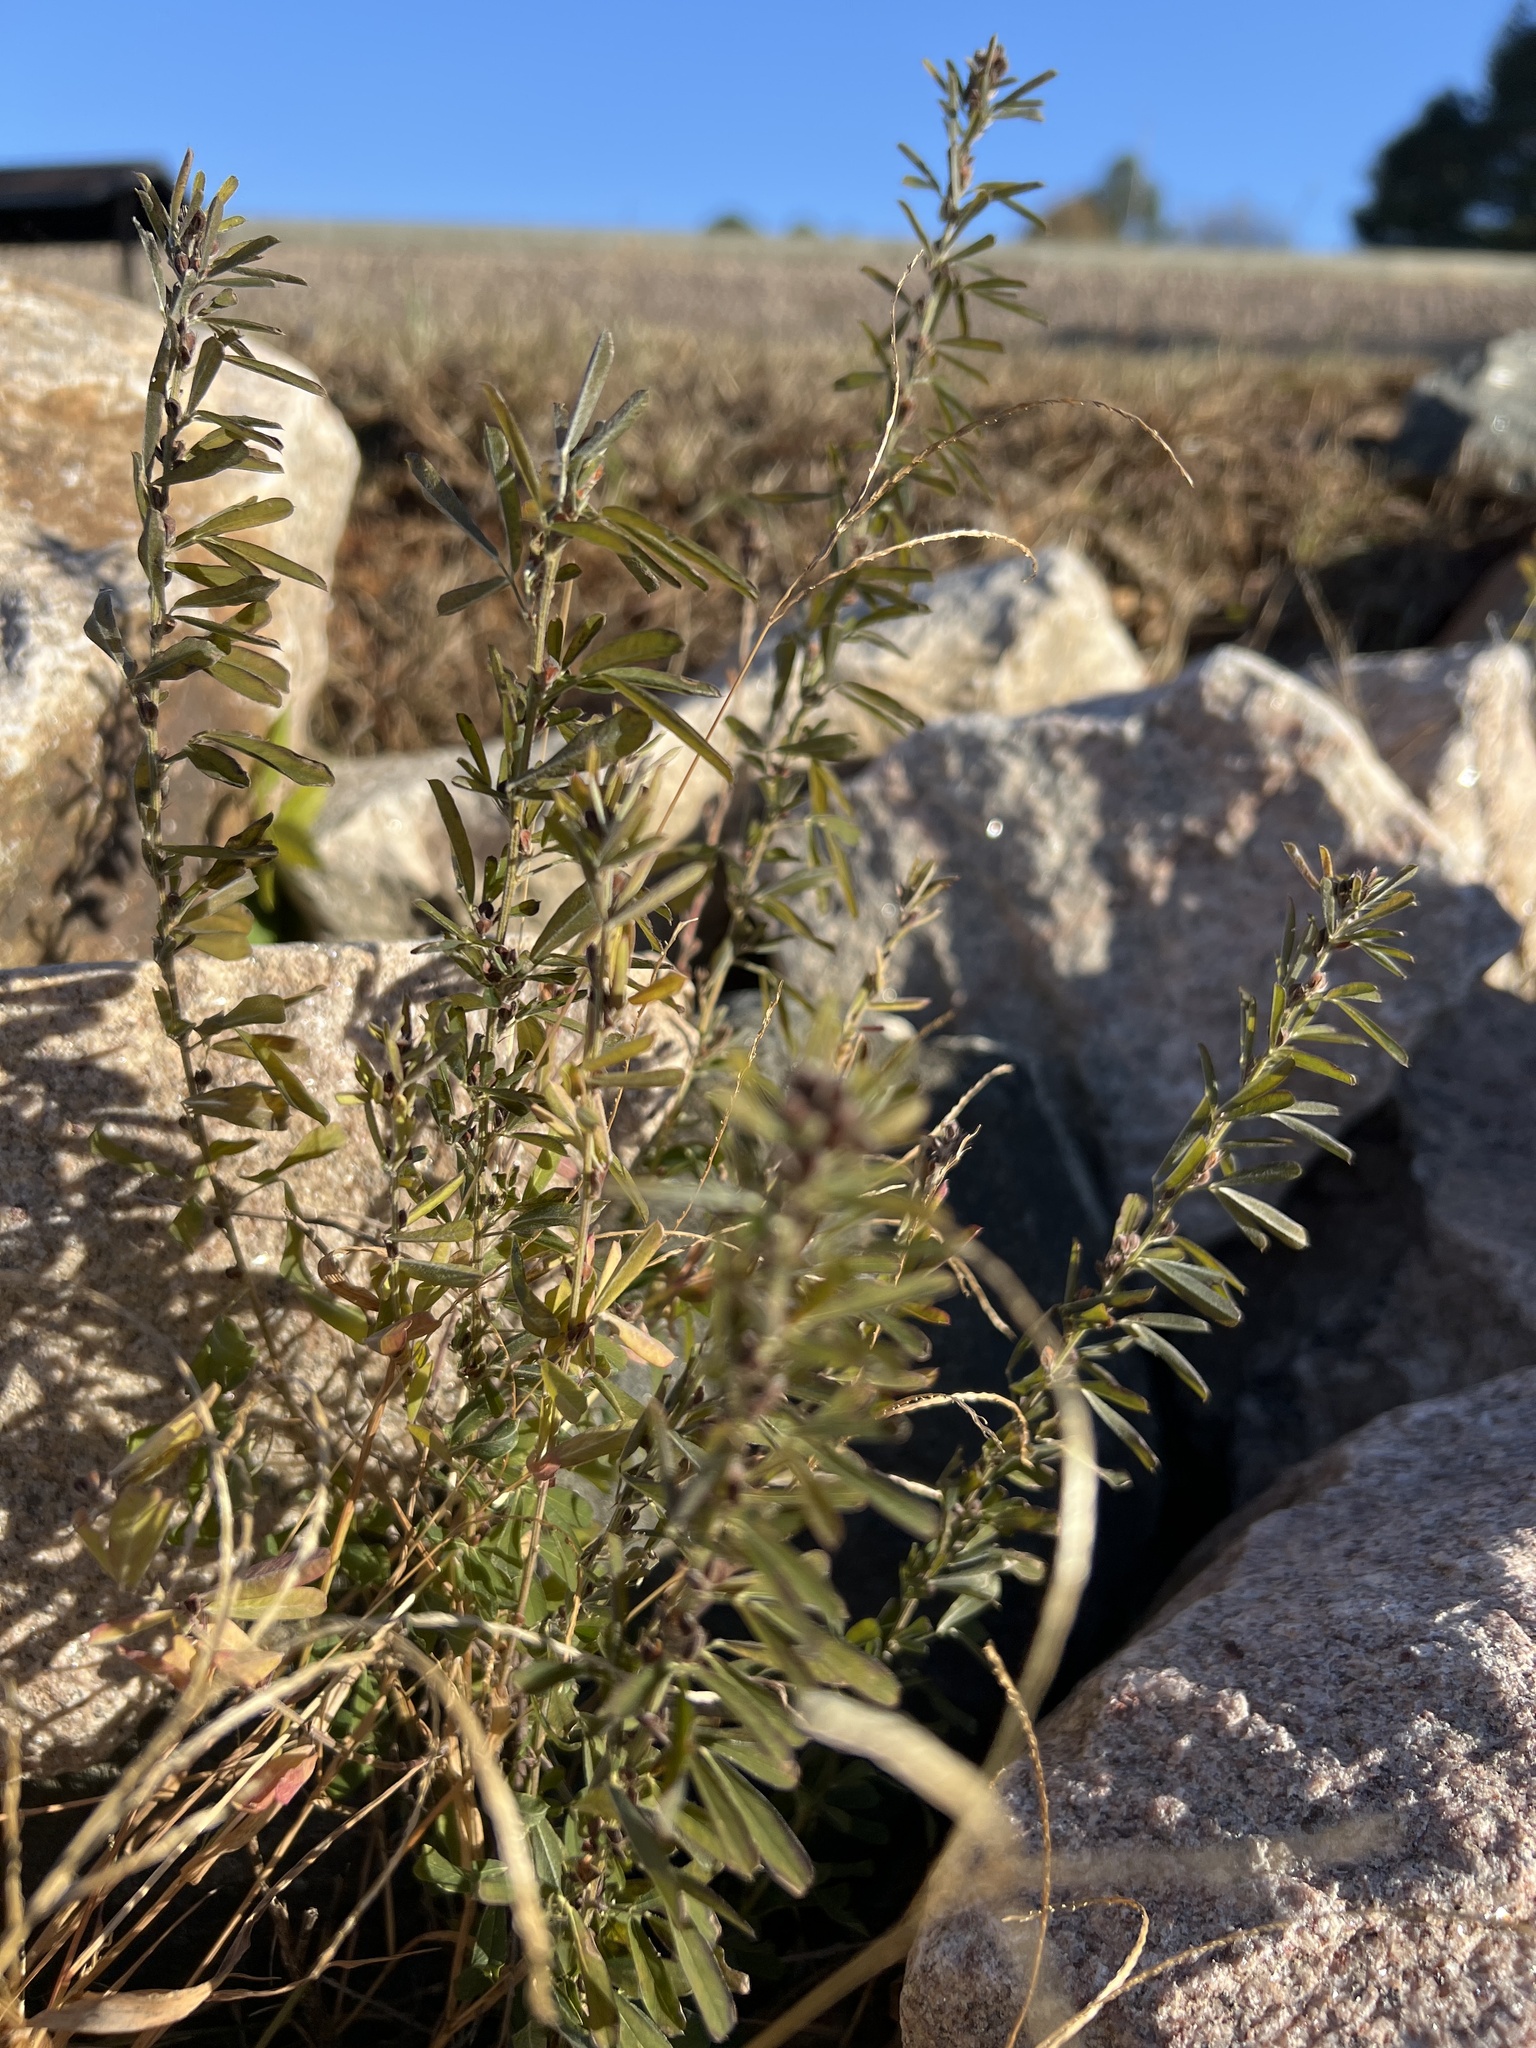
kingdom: Plantae
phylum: Tracheophyta
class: Magnoliopsida
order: Fabales
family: Fabaceae
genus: Lespedeza
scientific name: Lespedeza cuneata
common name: Chinese bush-clover
